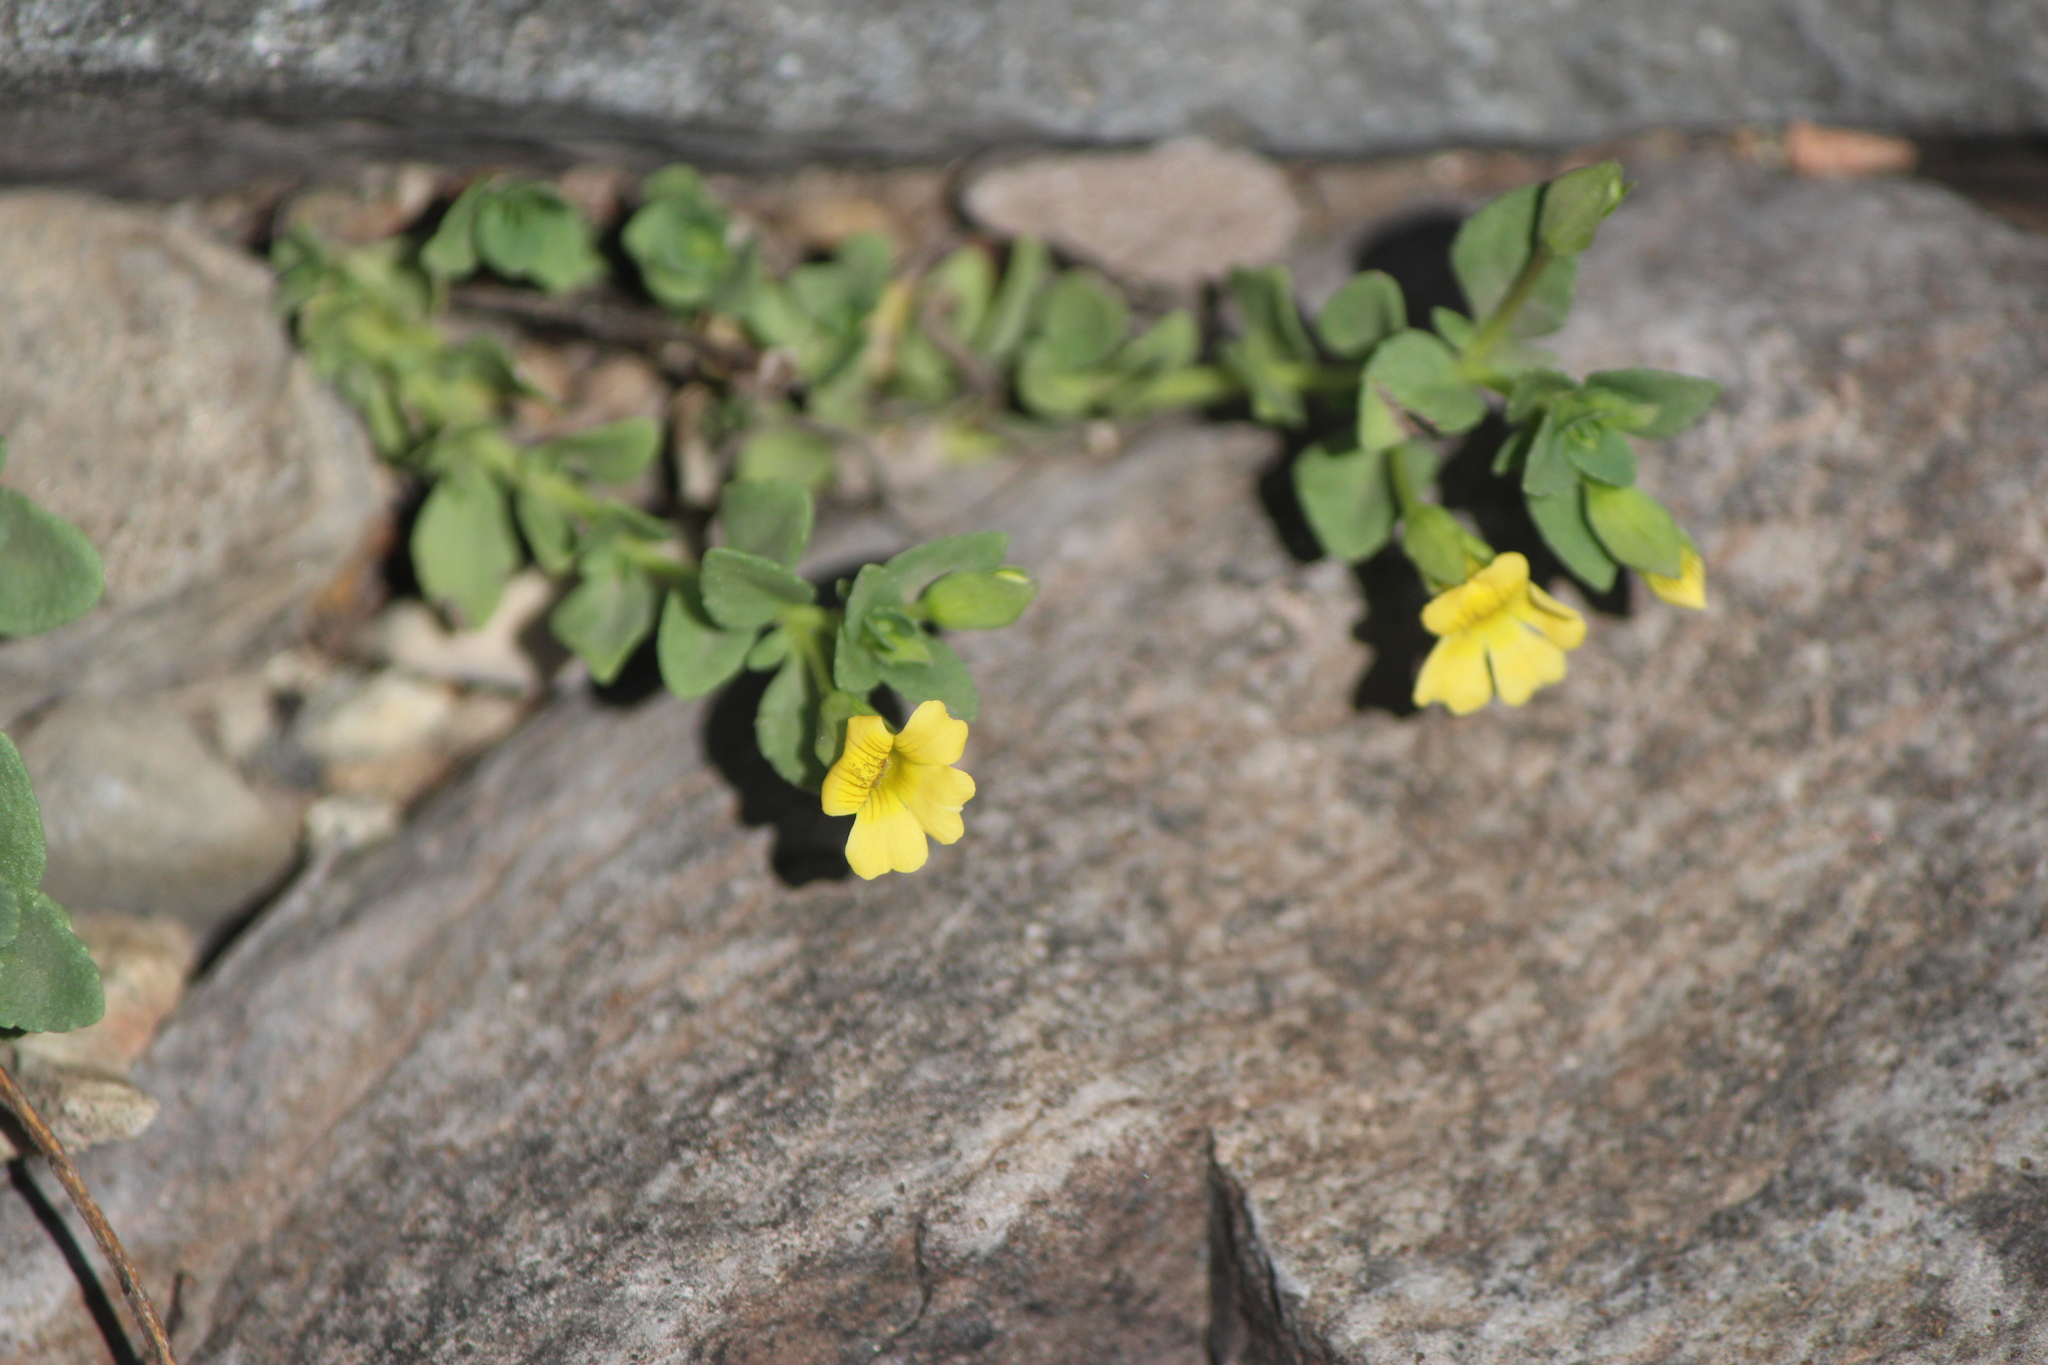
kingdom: Plantae
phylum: Tracheophyta
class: Magnoliopsida
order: Lamiales
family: Plantaginaceae
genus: Mecardonia
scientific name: Mecardonia procumbens
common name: Baby jump-up
